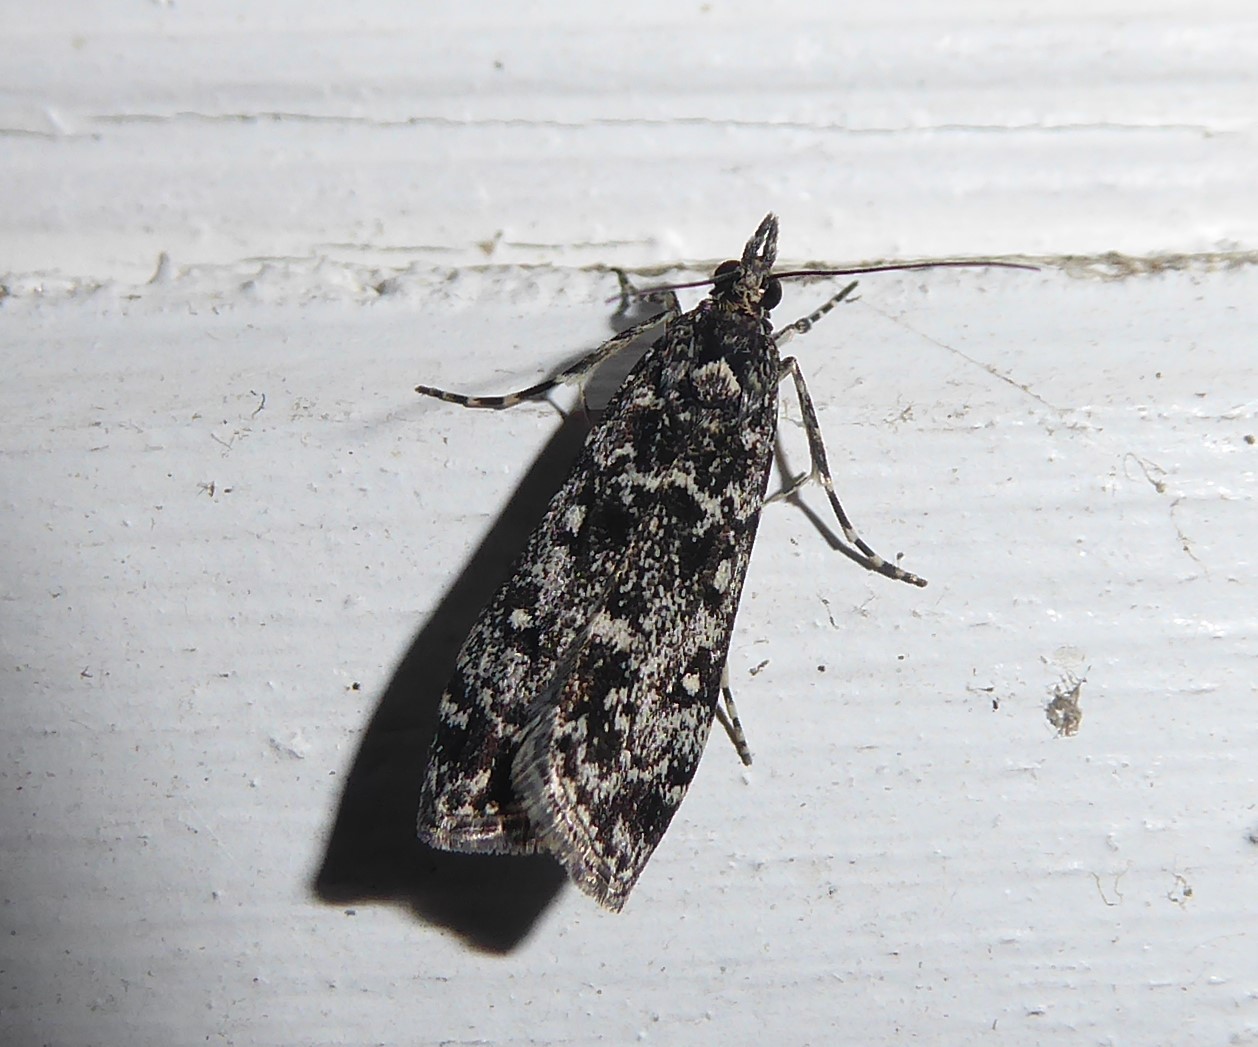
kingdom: Animalia
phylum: Arthropoda
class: Insecta
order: Lepidoptera
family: Crambidae
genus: Eudonia
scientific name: Eudonia philerga
